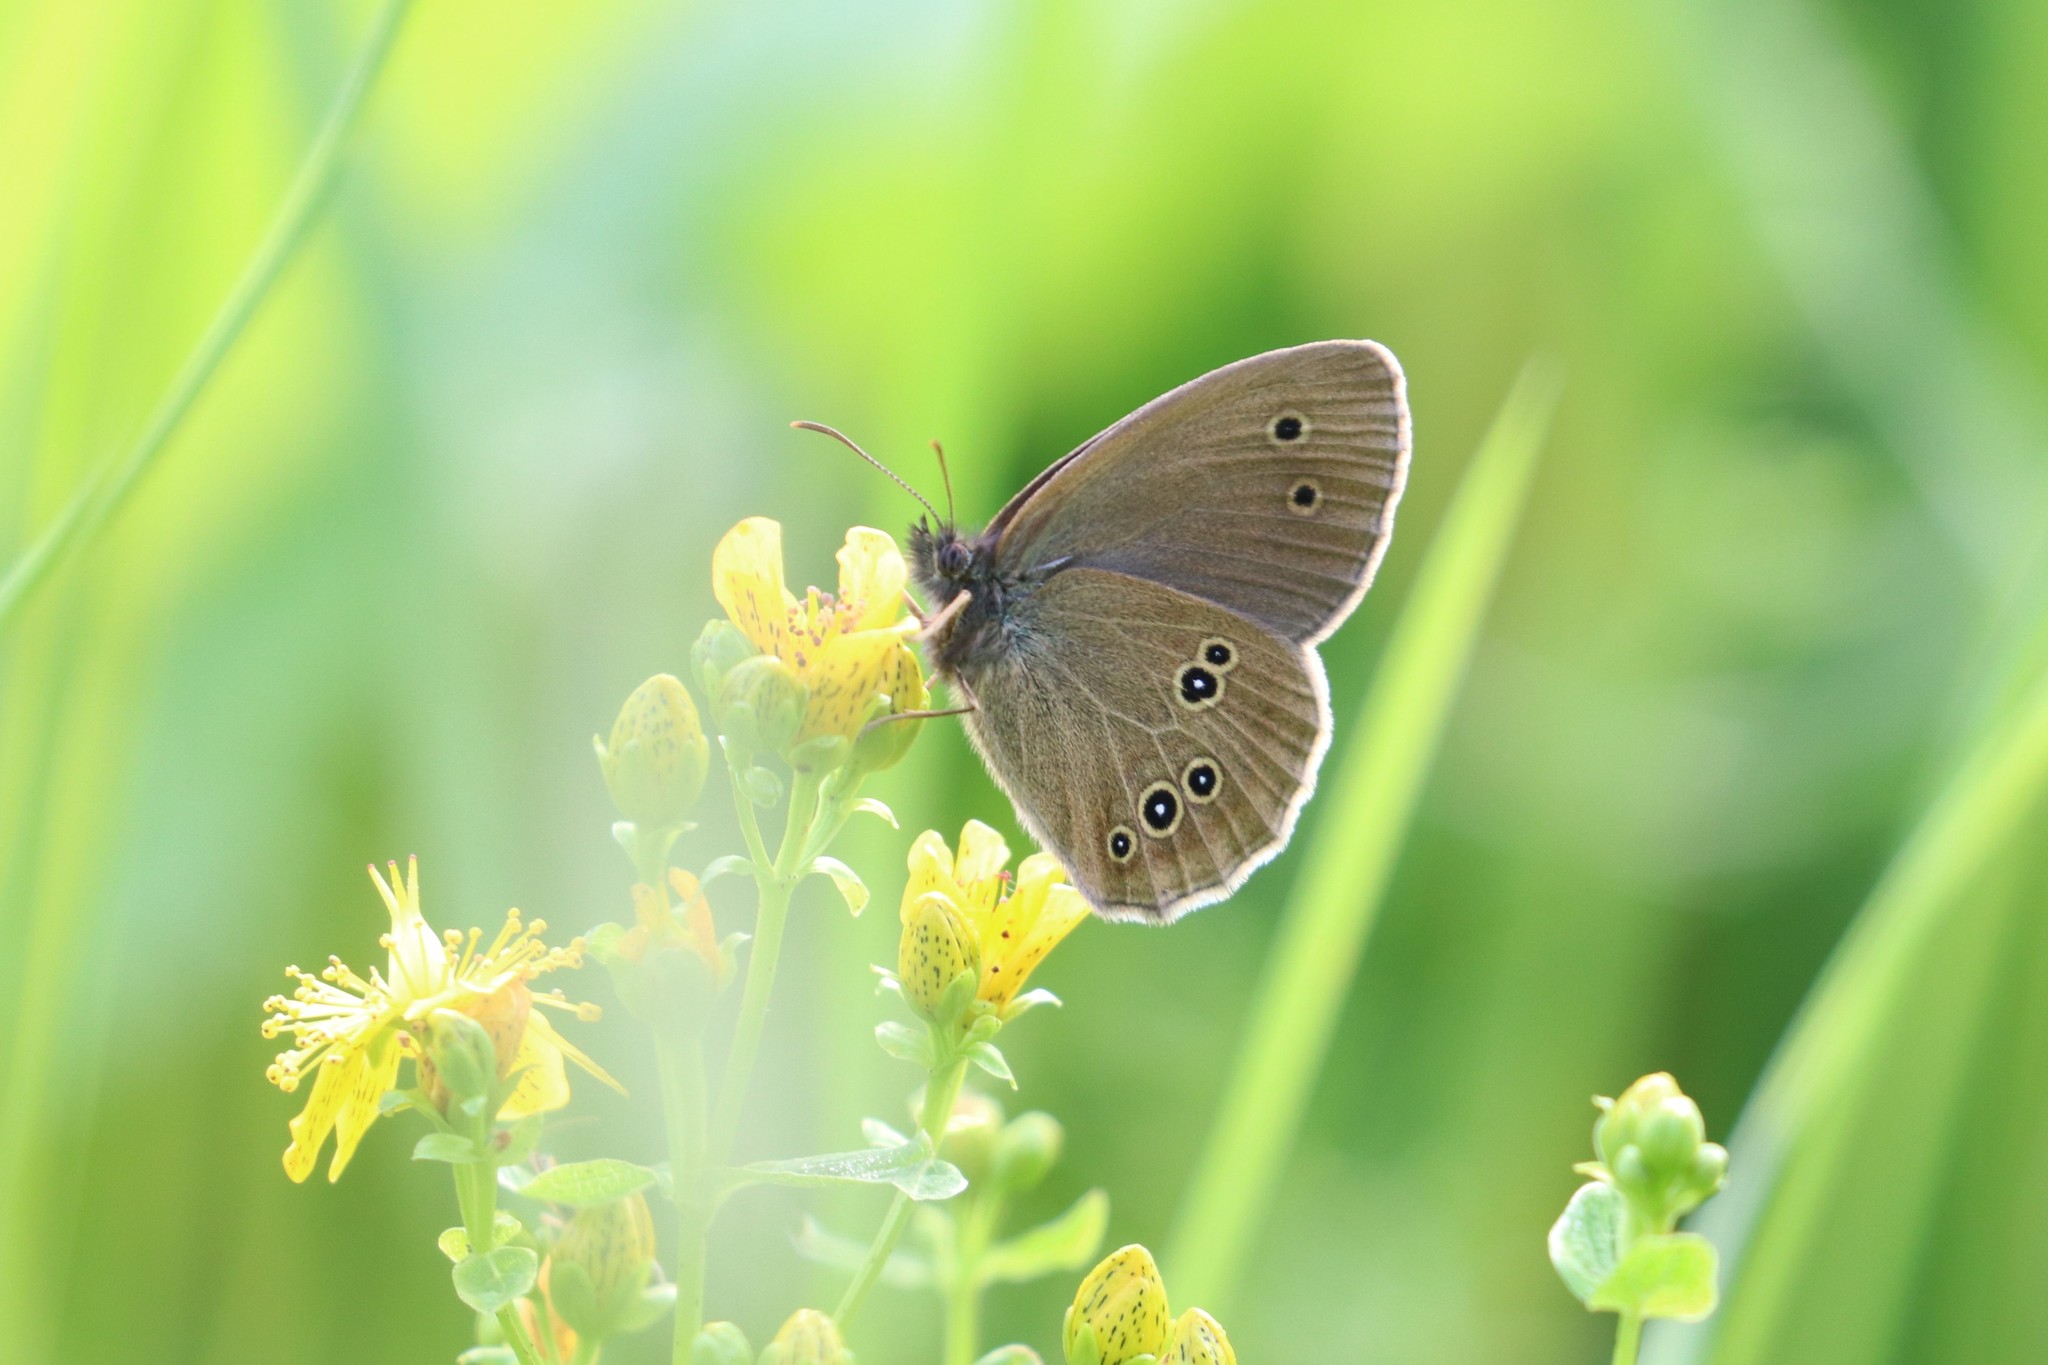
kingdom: Animalia
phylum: Arthropoda
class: Insecta
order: Lepidoptera
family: Nymphalidae
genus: Aphantopus
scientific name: Aphantopus hyperantus
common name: Ringlet
